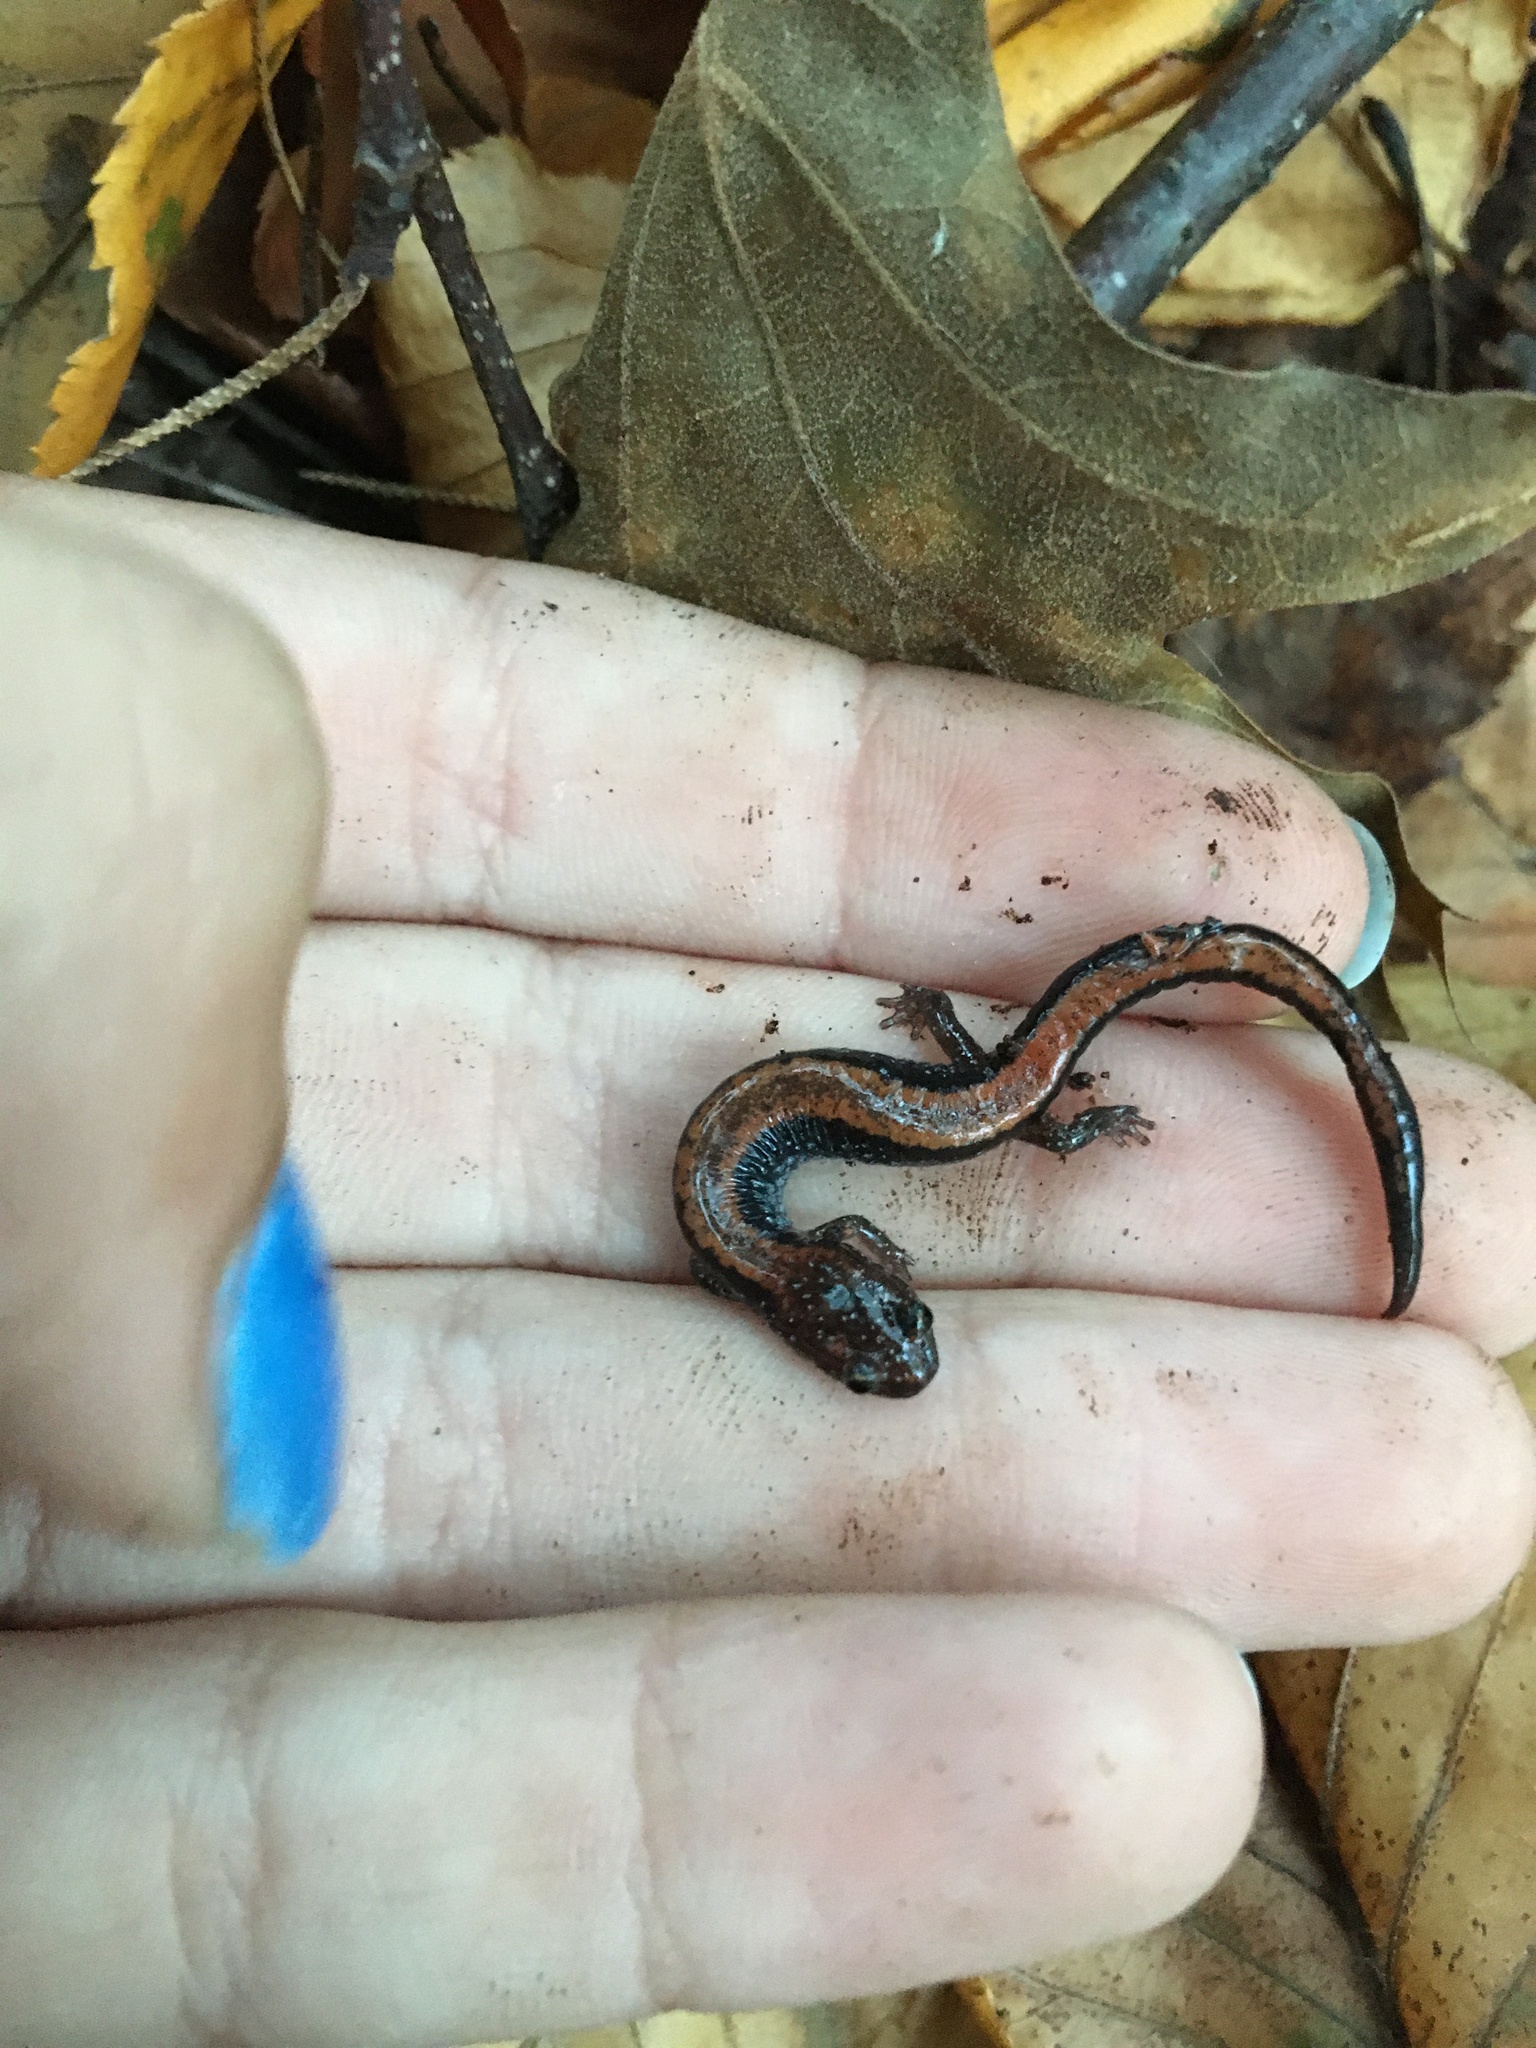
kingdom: Animalia
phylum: Chordata
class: Amphibia
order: Caudata
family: Plethodontidae
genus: Plethodon
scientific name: Plethodon cinereus
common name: Redback salamander
